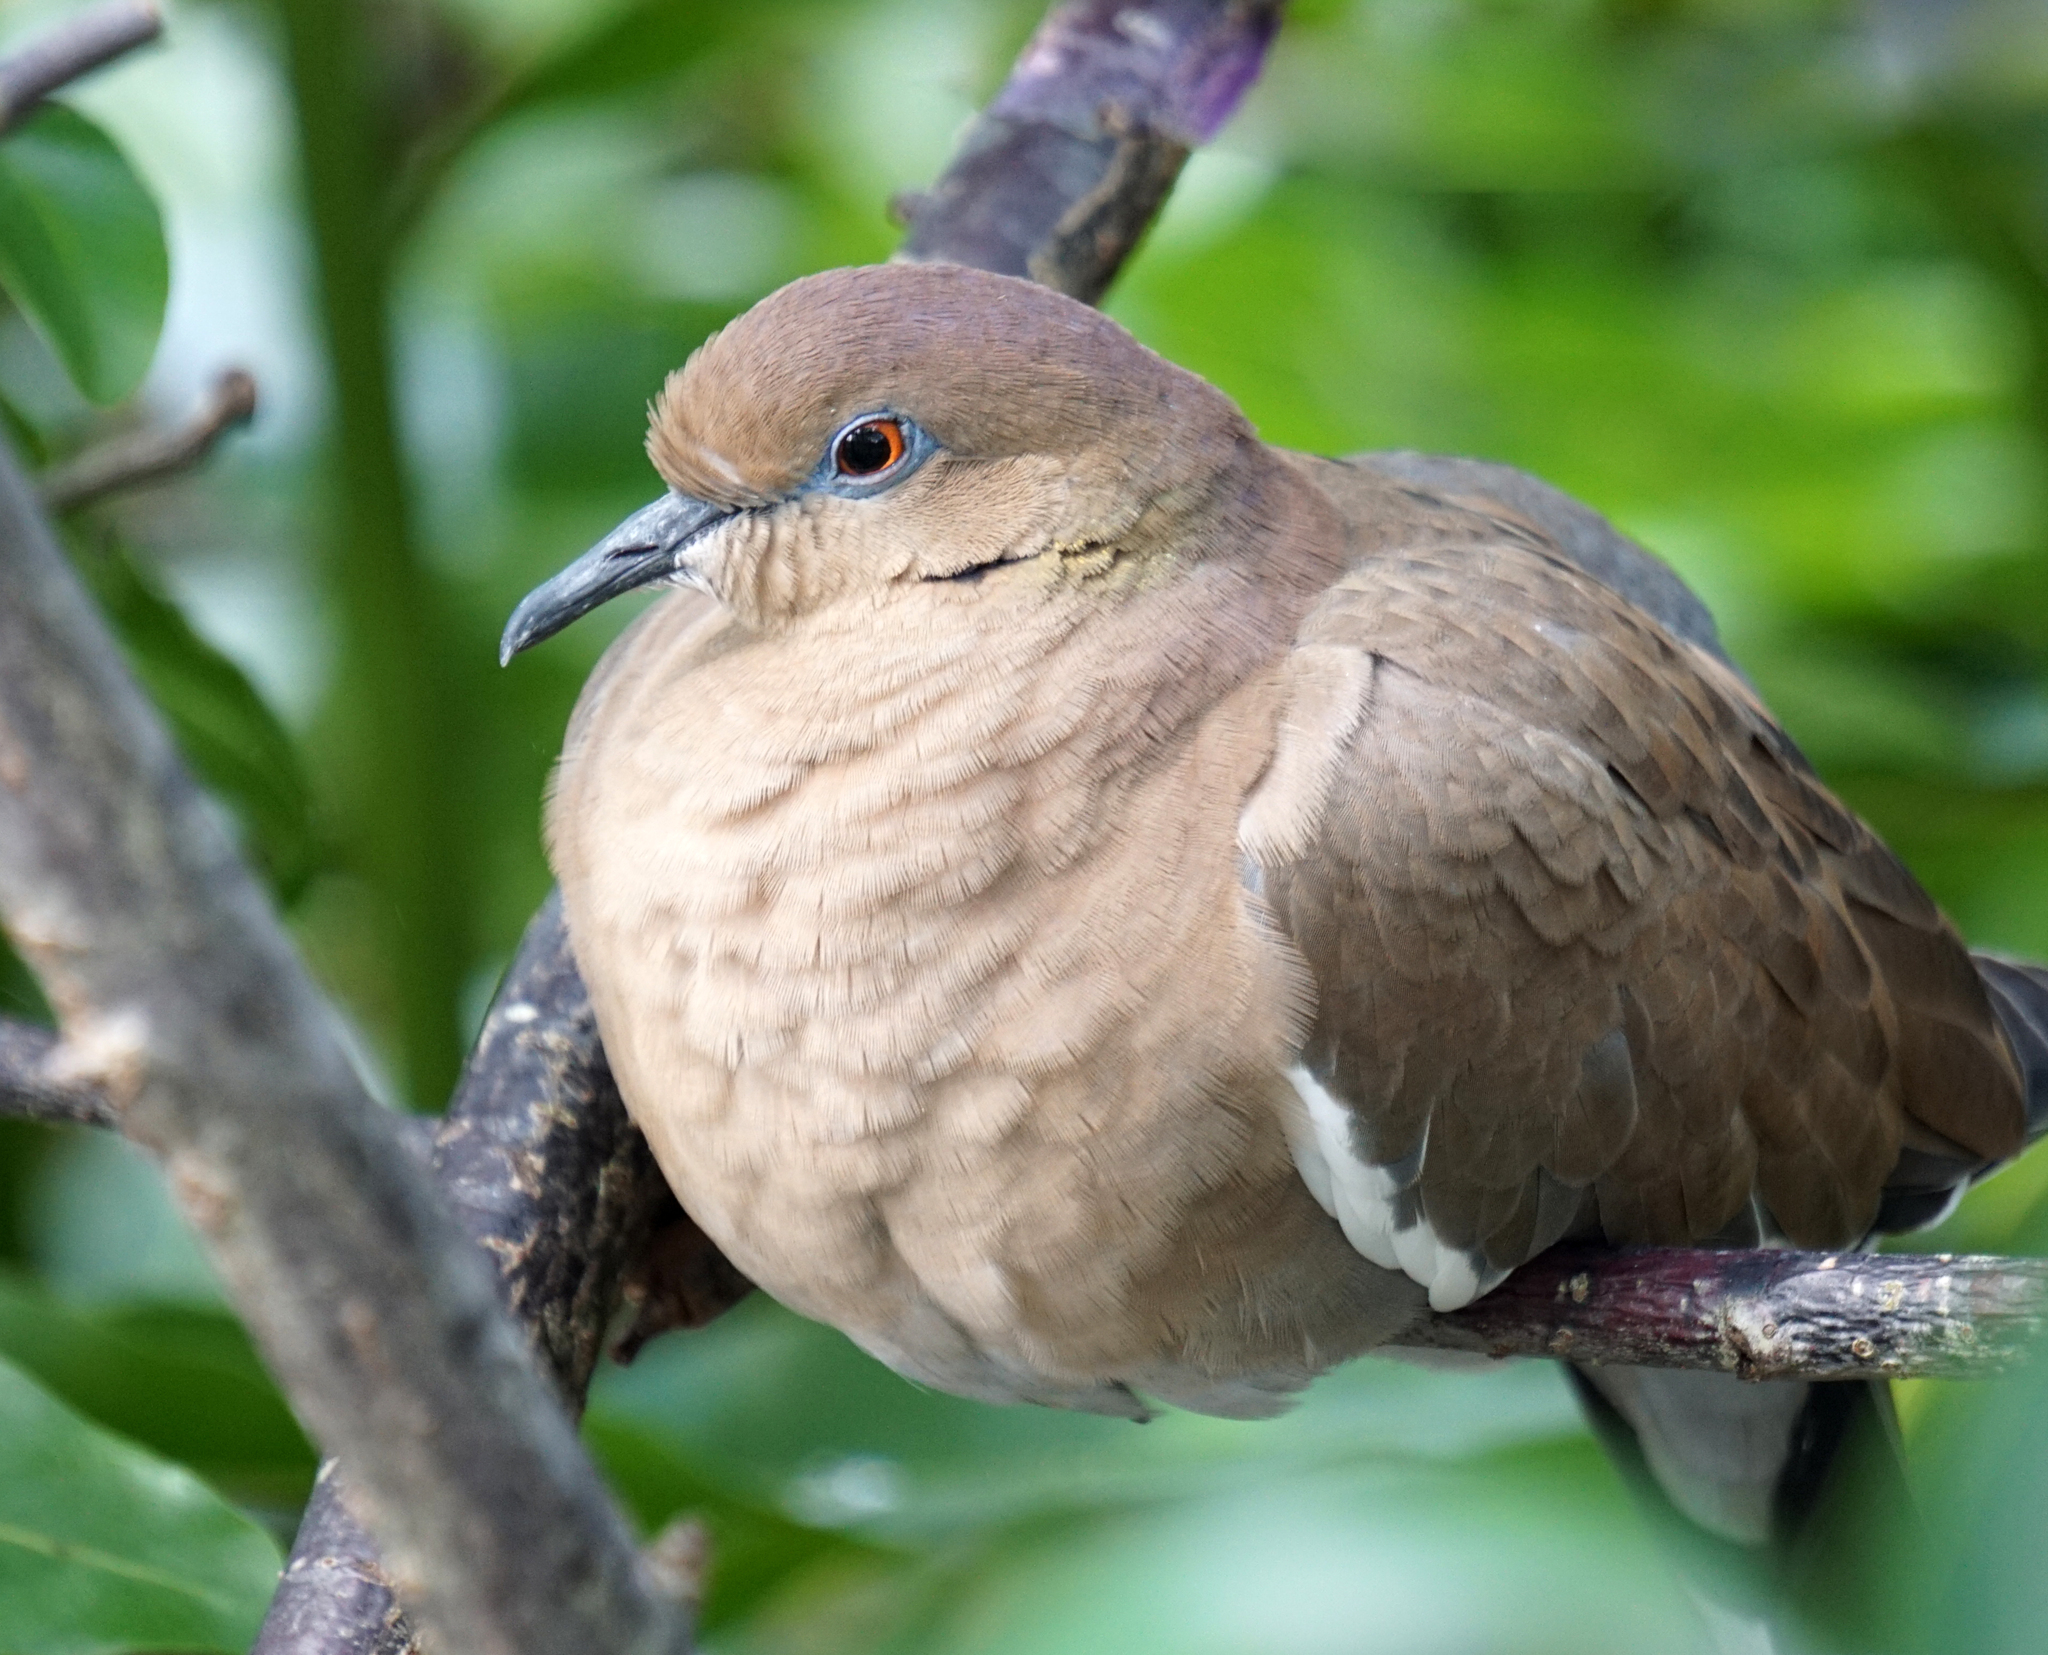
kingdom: Animalia
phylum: Chordata
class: Aves
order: Columbiformes
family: Columbidae
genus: Zenaida
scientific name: Zenaida asiatica
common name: White-winged dove
